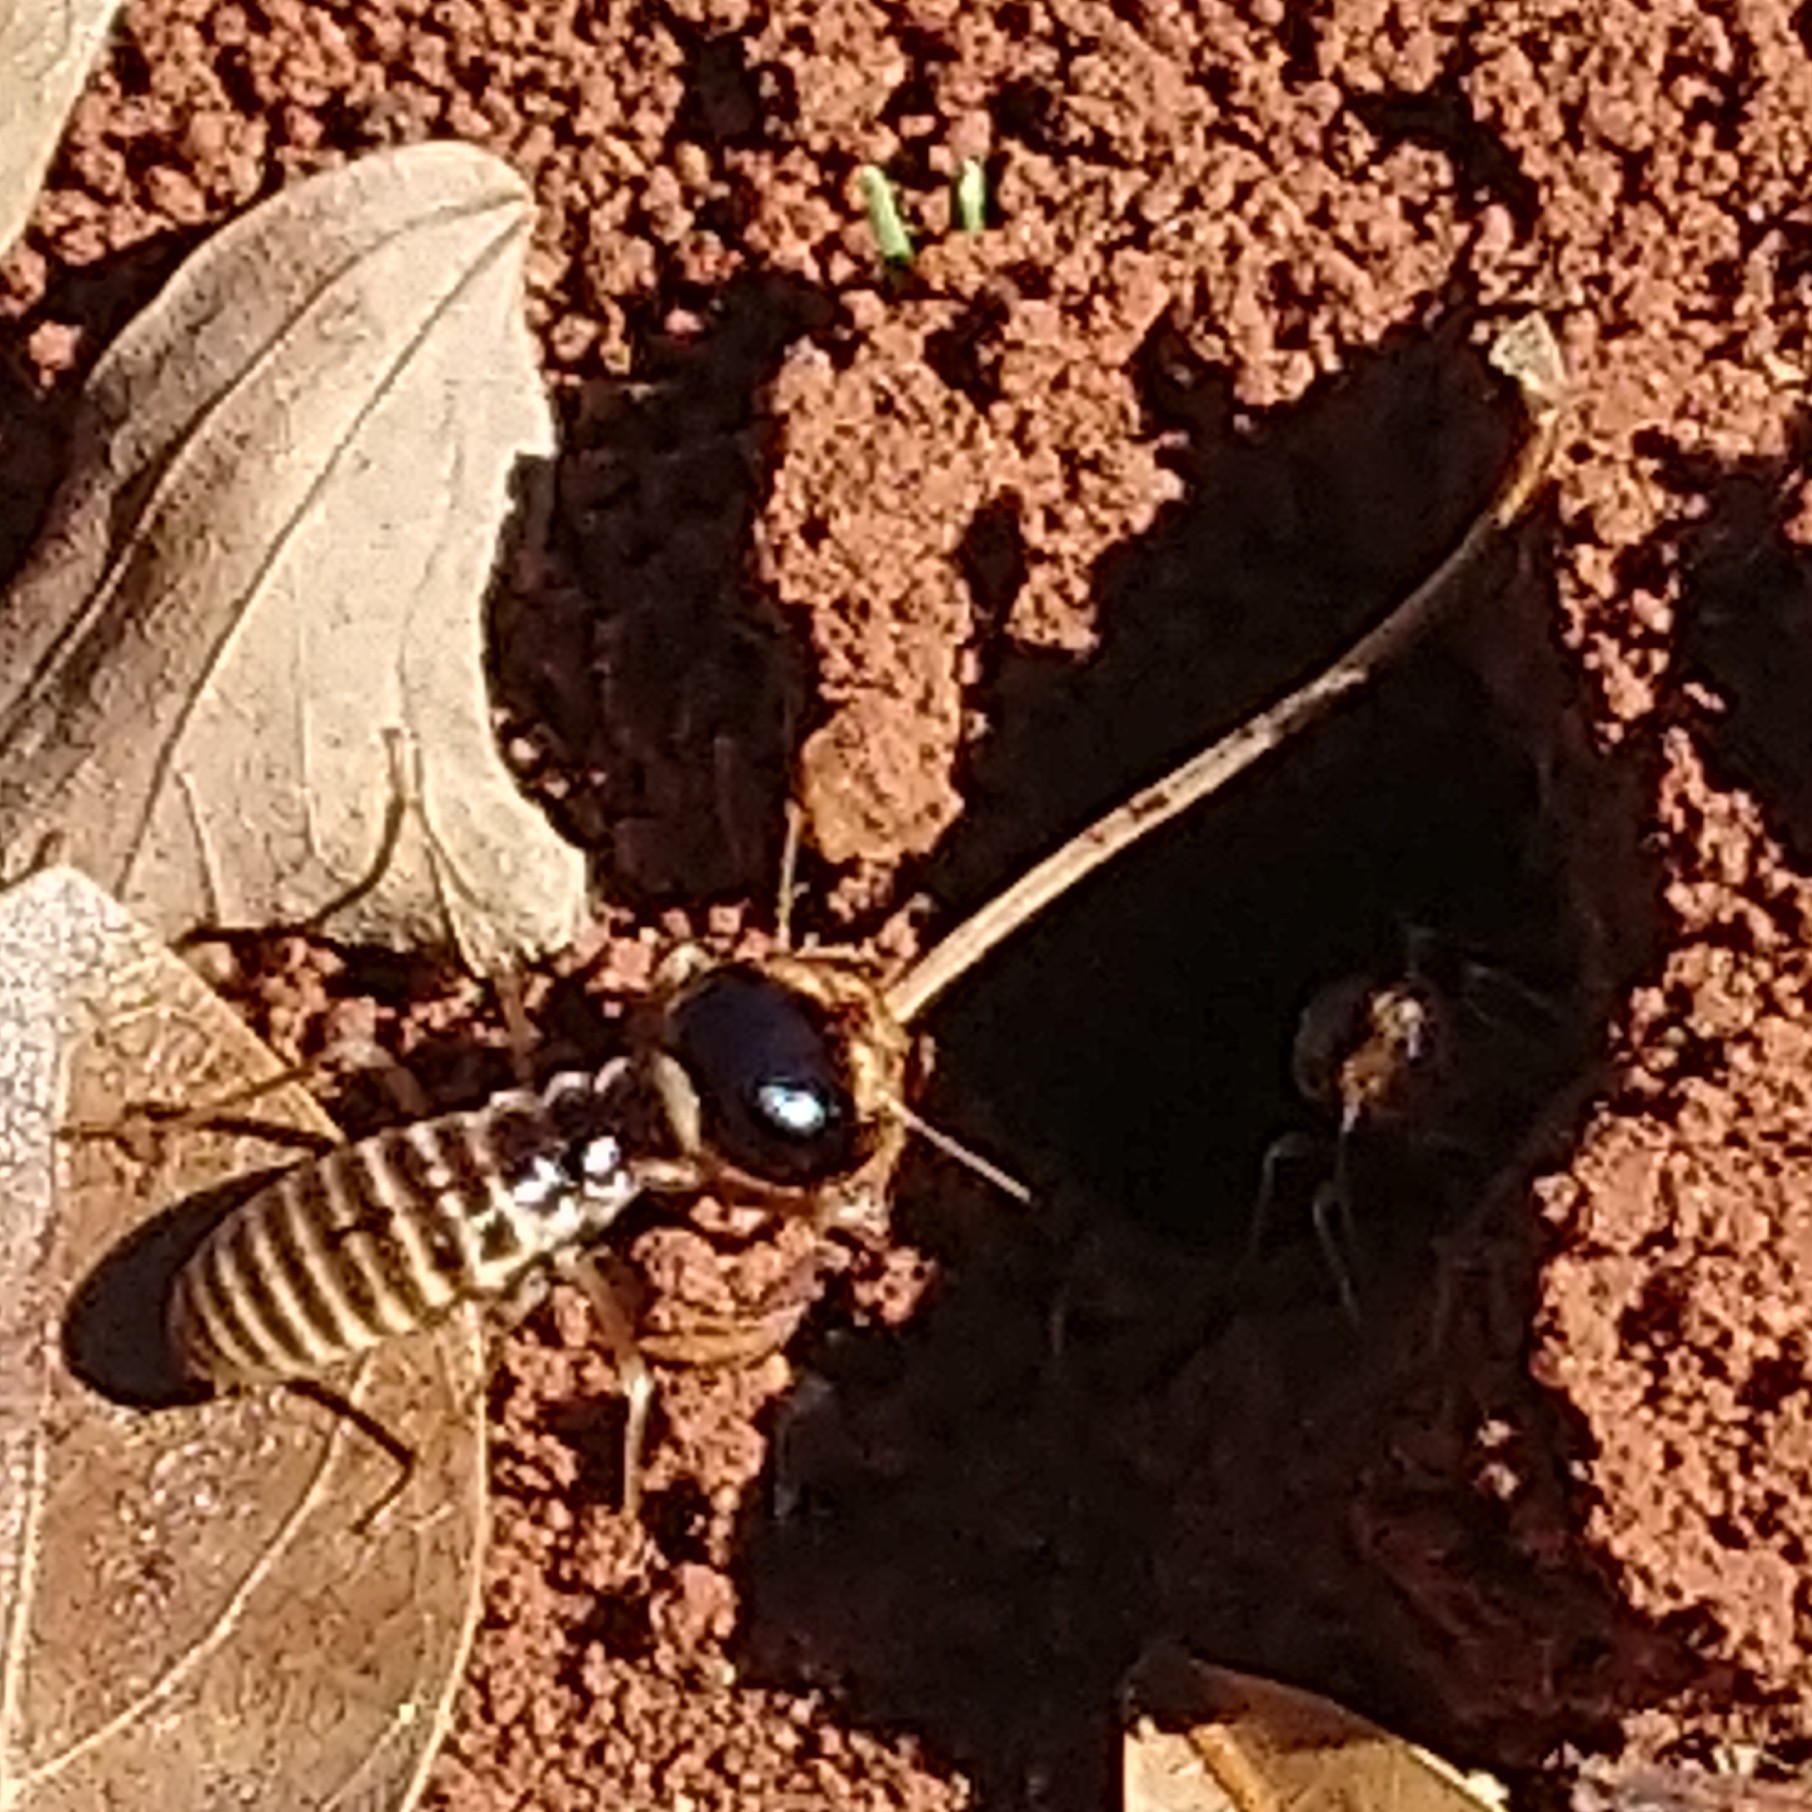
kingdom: Animalia
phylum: Arthropoda
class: Insecta
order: Blattodea
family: Hodotermitidae
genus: Hodotermes
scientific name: Hodotermes mossambicus
